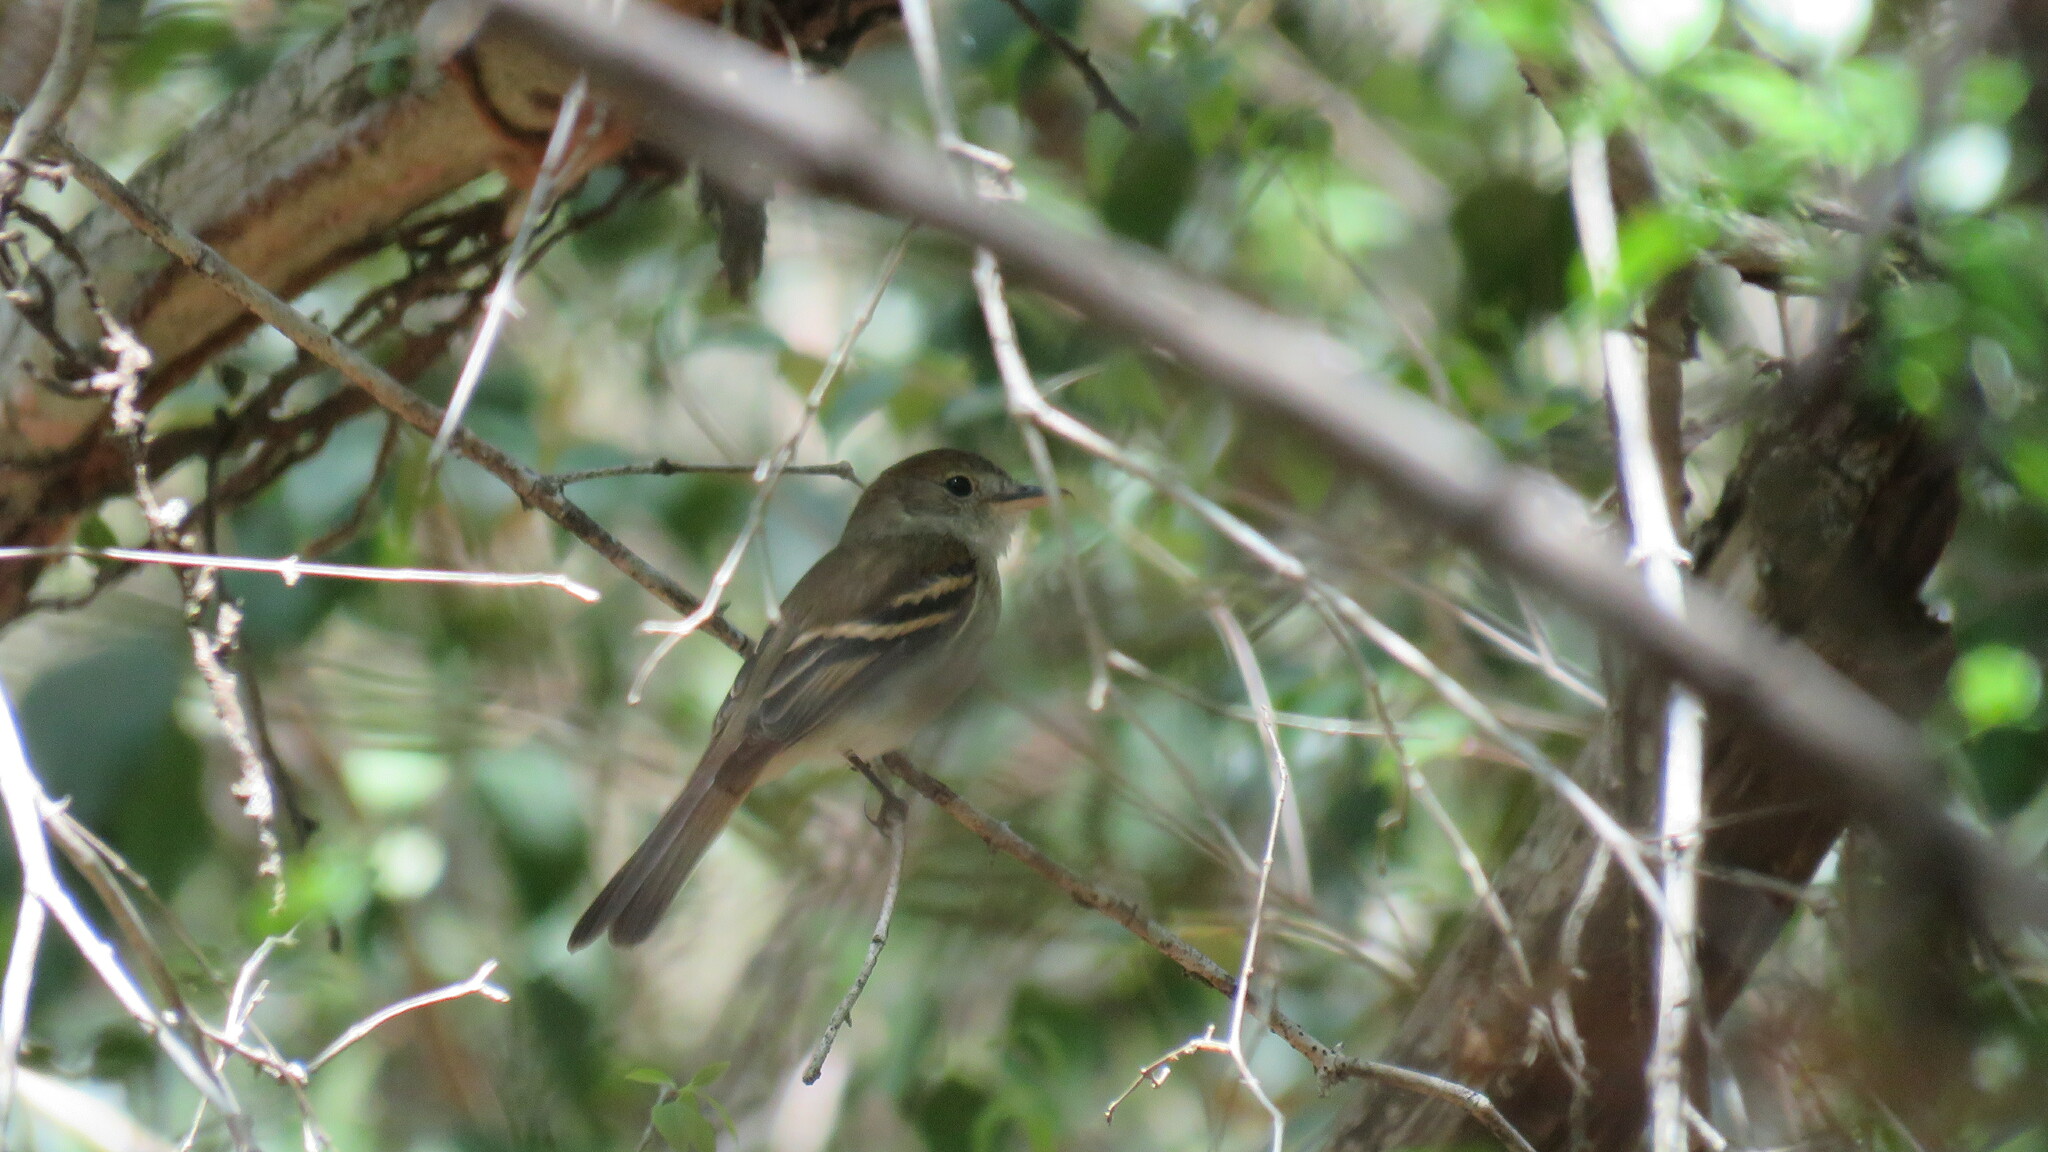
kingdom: Animalia
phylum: Chordata
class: Aves
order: Passeriformes
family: Tyrannidae
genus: Lathrotriccus
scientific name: Lathrotriccus euleri
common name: Euler's flycatcher
